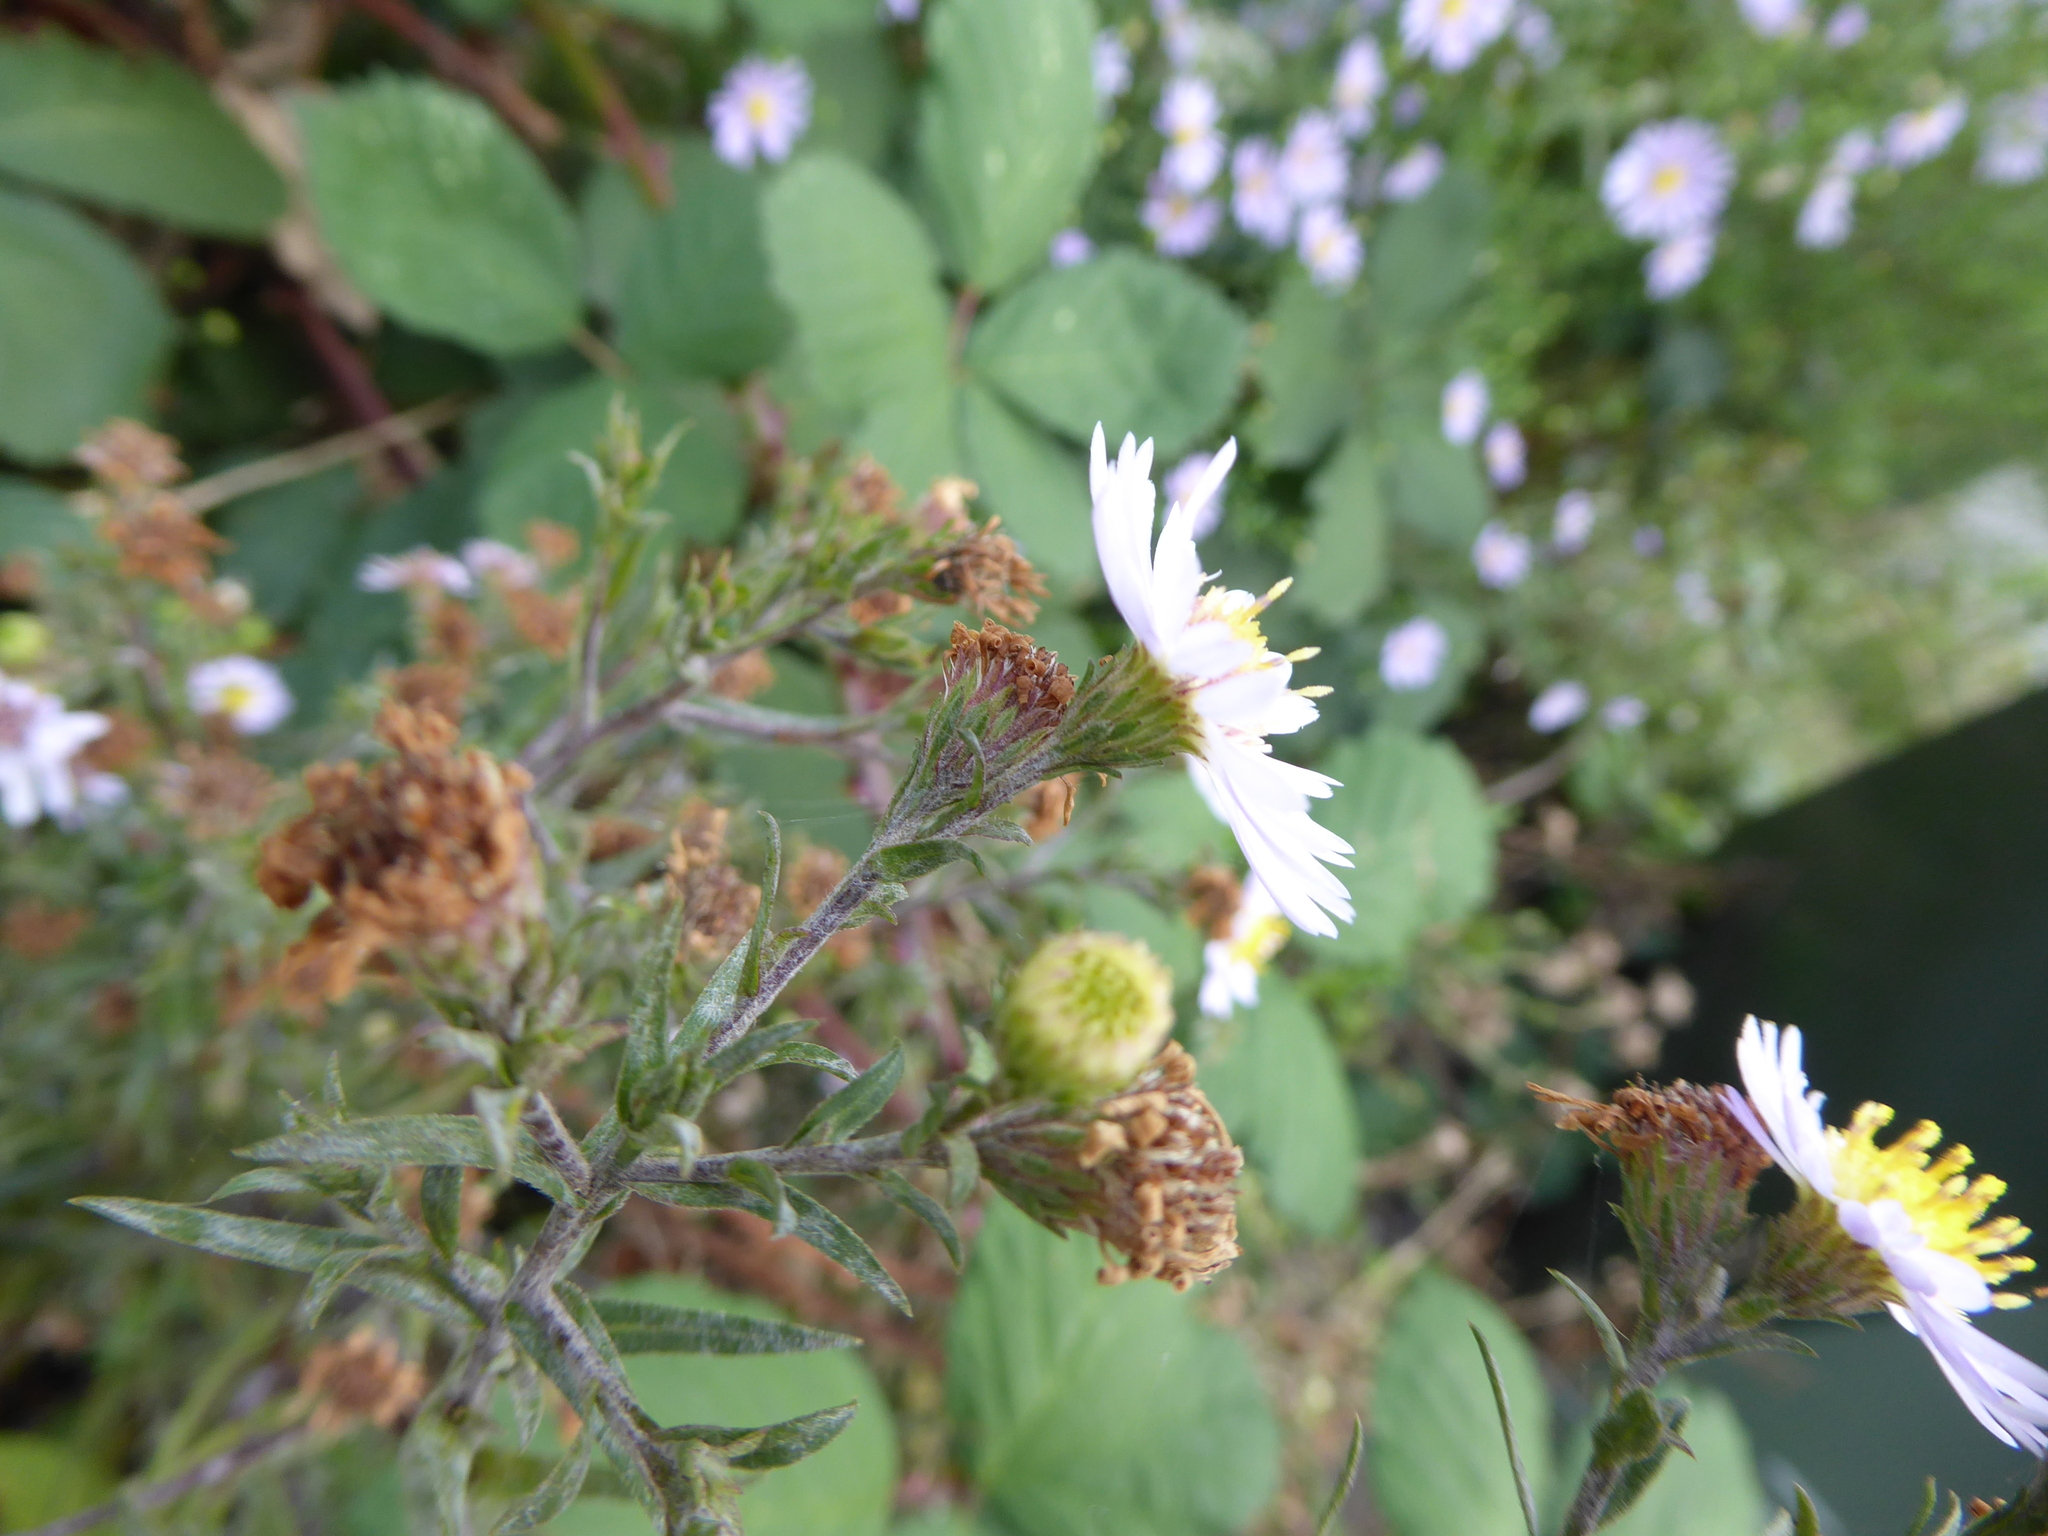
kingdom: Plantae
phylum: Tracheophyta
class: Magnoliopsida
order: Asterales
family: Asteraceae
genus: Symphyotrichum
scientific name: Symphyotrichum
